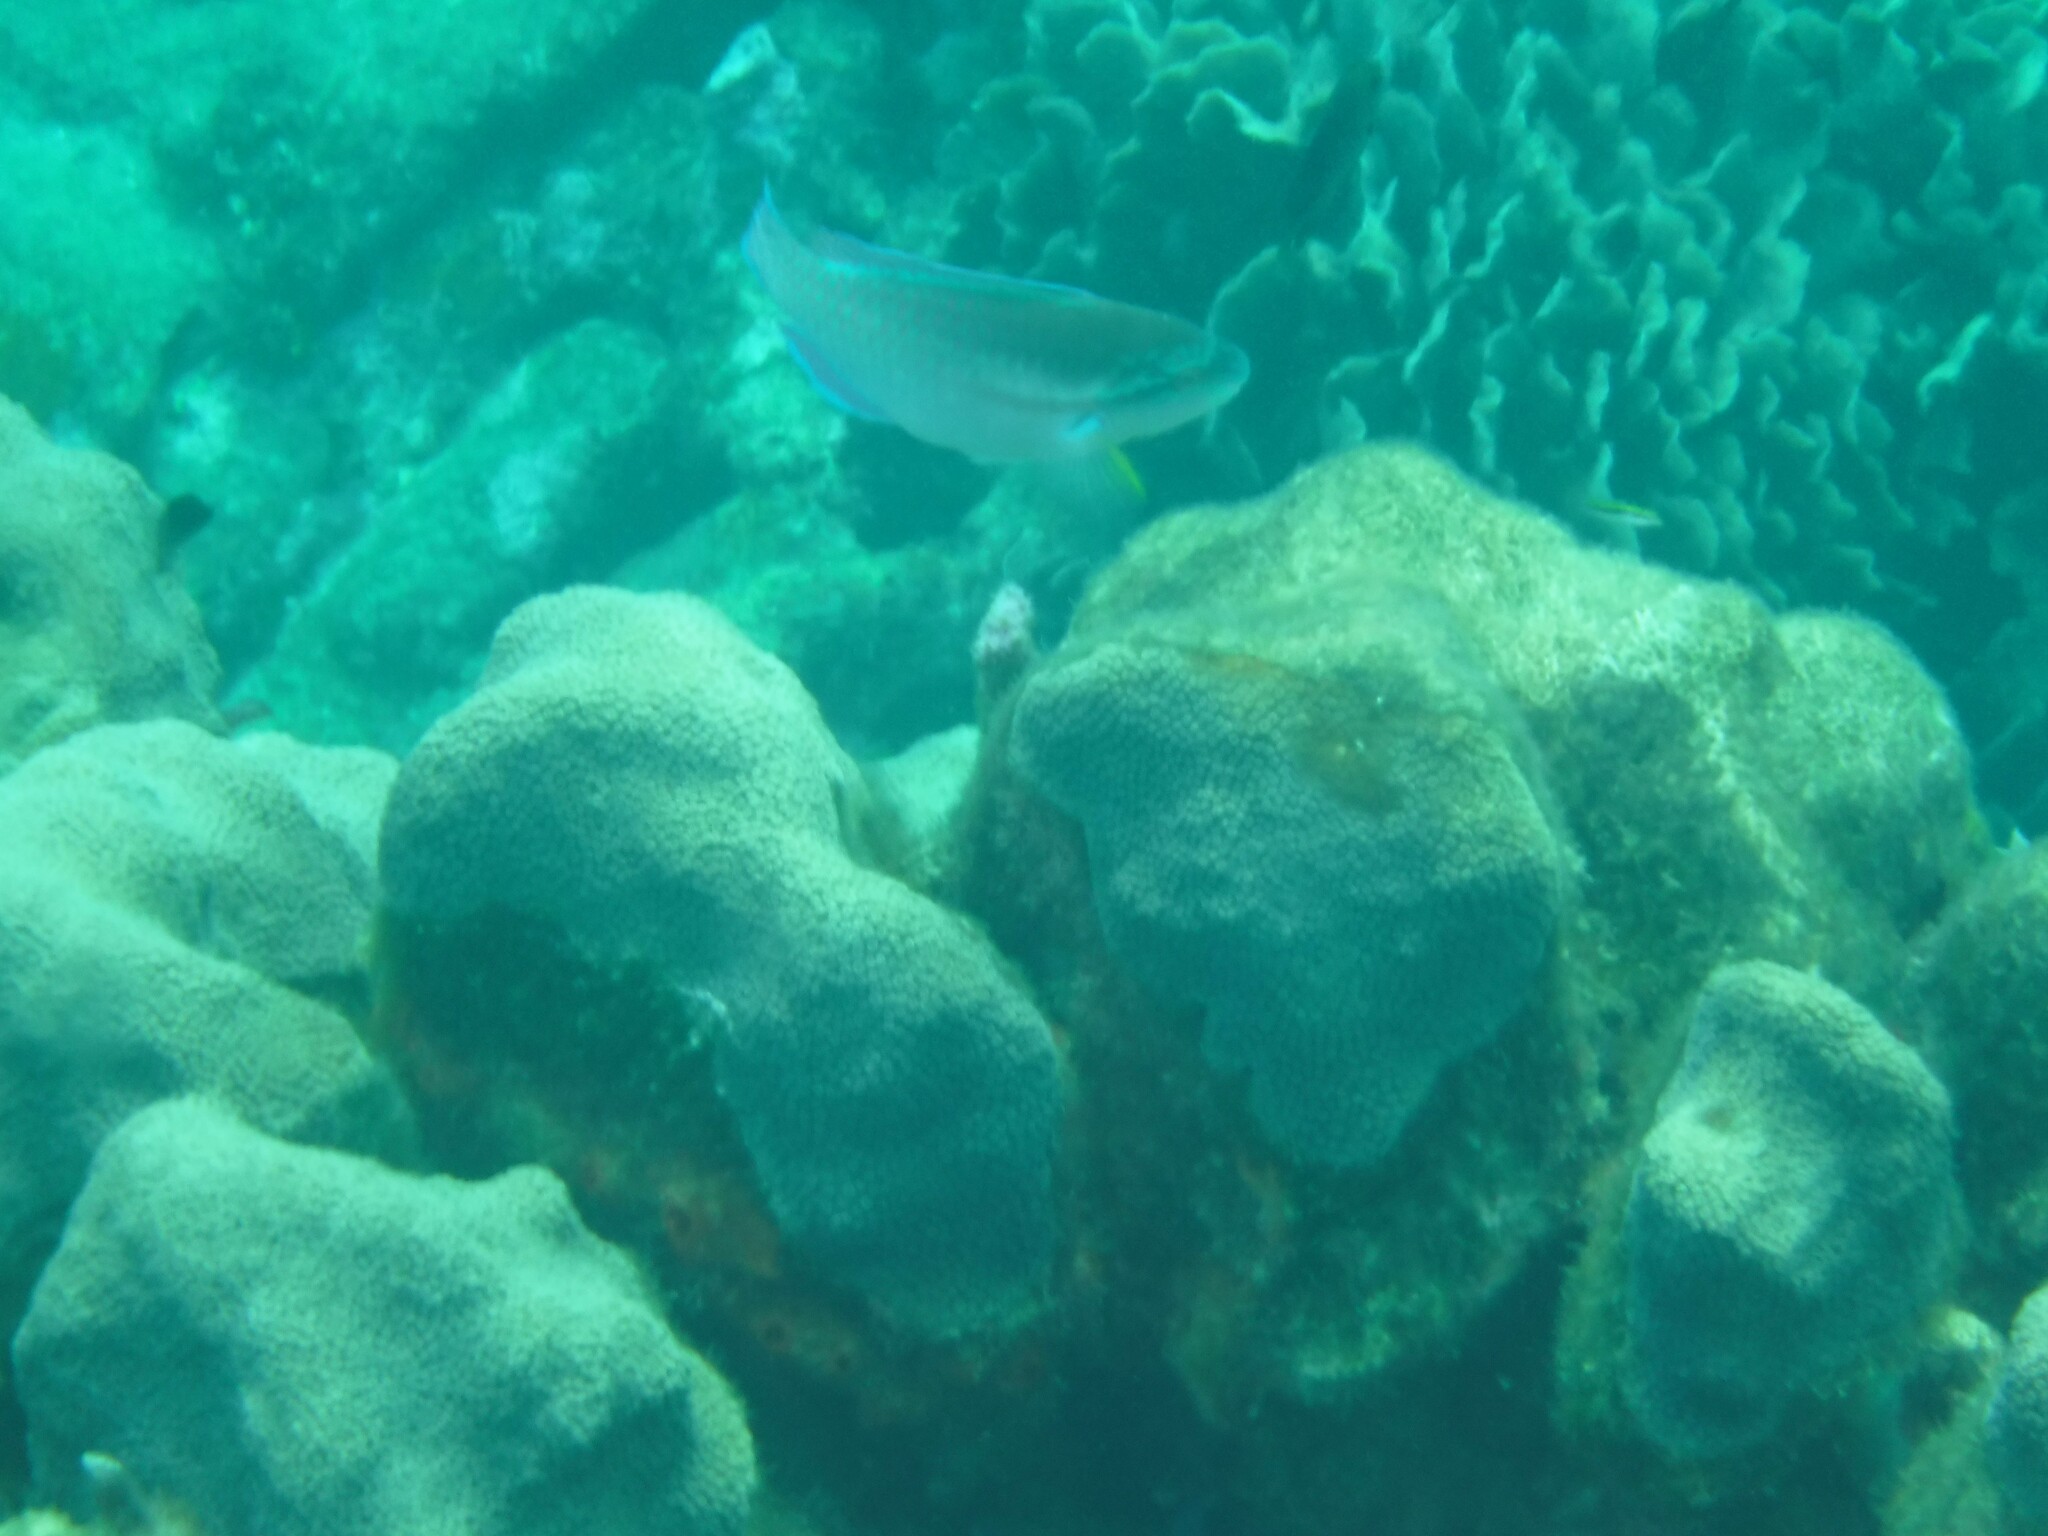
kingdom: Animalia
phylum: Chordata
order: Perciformes
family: Scaridae
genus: Scarus
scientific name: Scarus iseri
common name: Striped parrotfish
